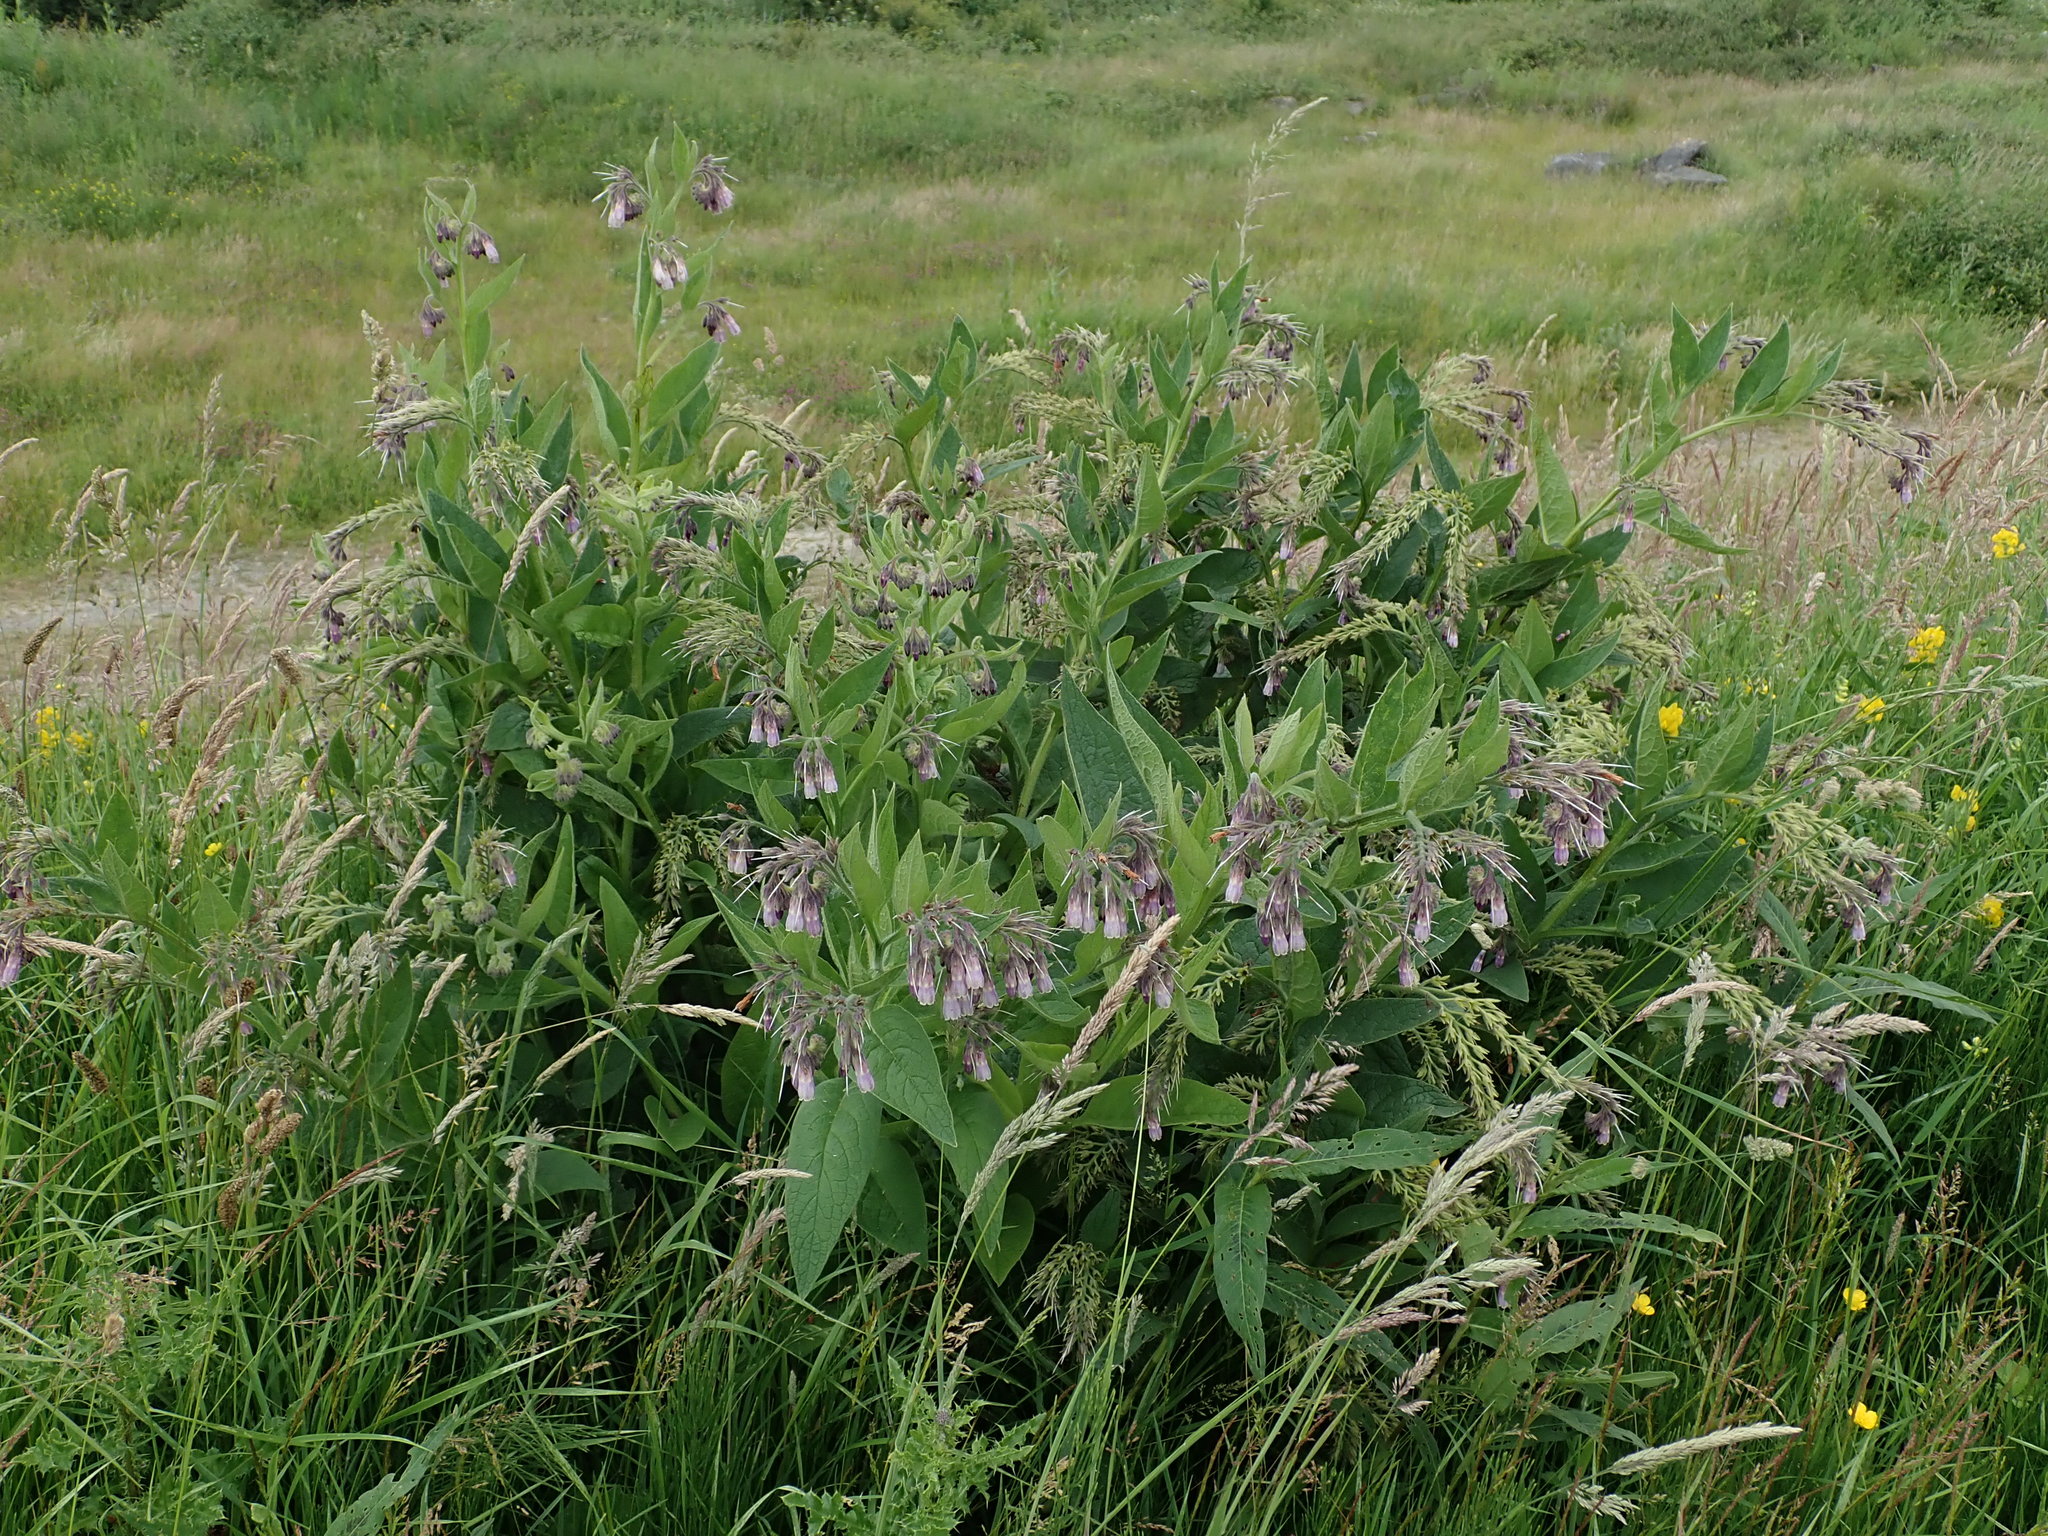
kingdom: Plantae
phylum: Tracheophyta
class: Magnoliopsida
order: Boraginales
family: Boraginaceae
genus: Symphytum
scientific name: Symphytum uplandicum
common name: Russian comfrey
